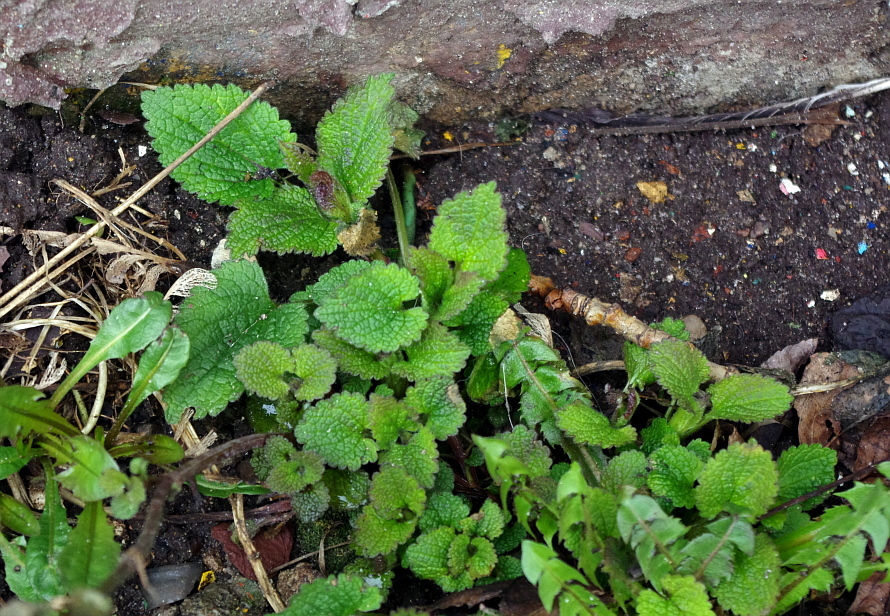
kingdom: Plantae
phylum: Tracheophyta
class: Magnoliopsida
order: Lamiales
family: Lamiaceae
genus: Lamium
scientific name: Lamium album
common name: White dead-nettle
